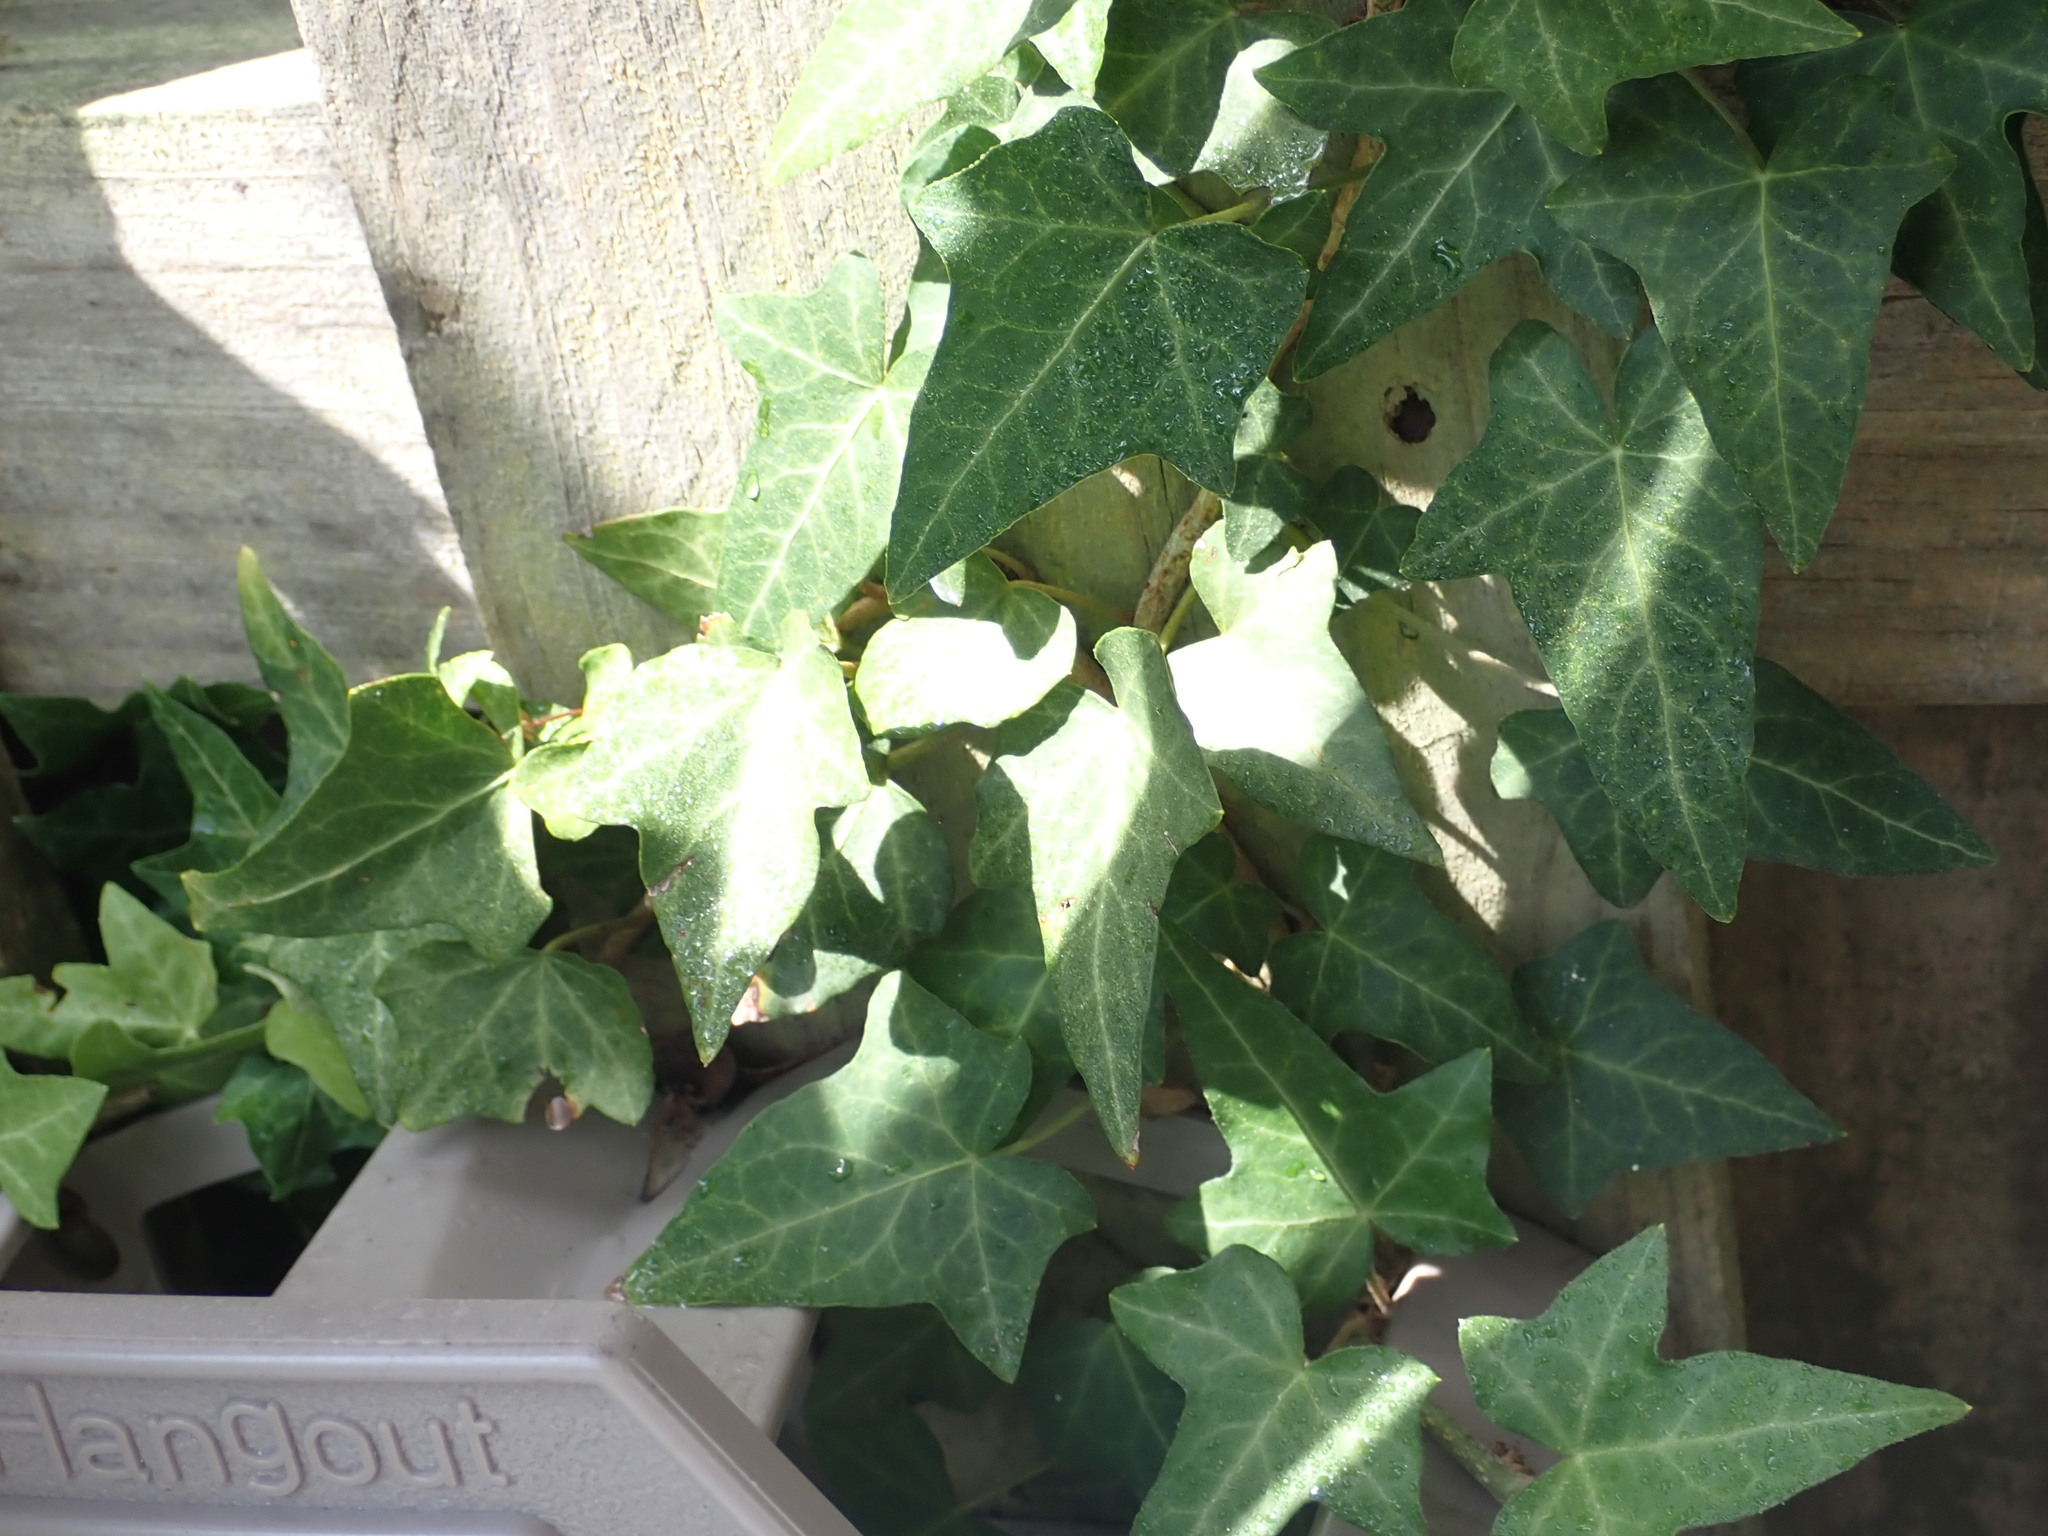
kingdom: Plantae
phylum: Tracheophyta
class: Magnoliopsida
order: Apiales
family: Araliaceae
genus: Hedera
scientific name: Hedera helix
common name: Ivy
